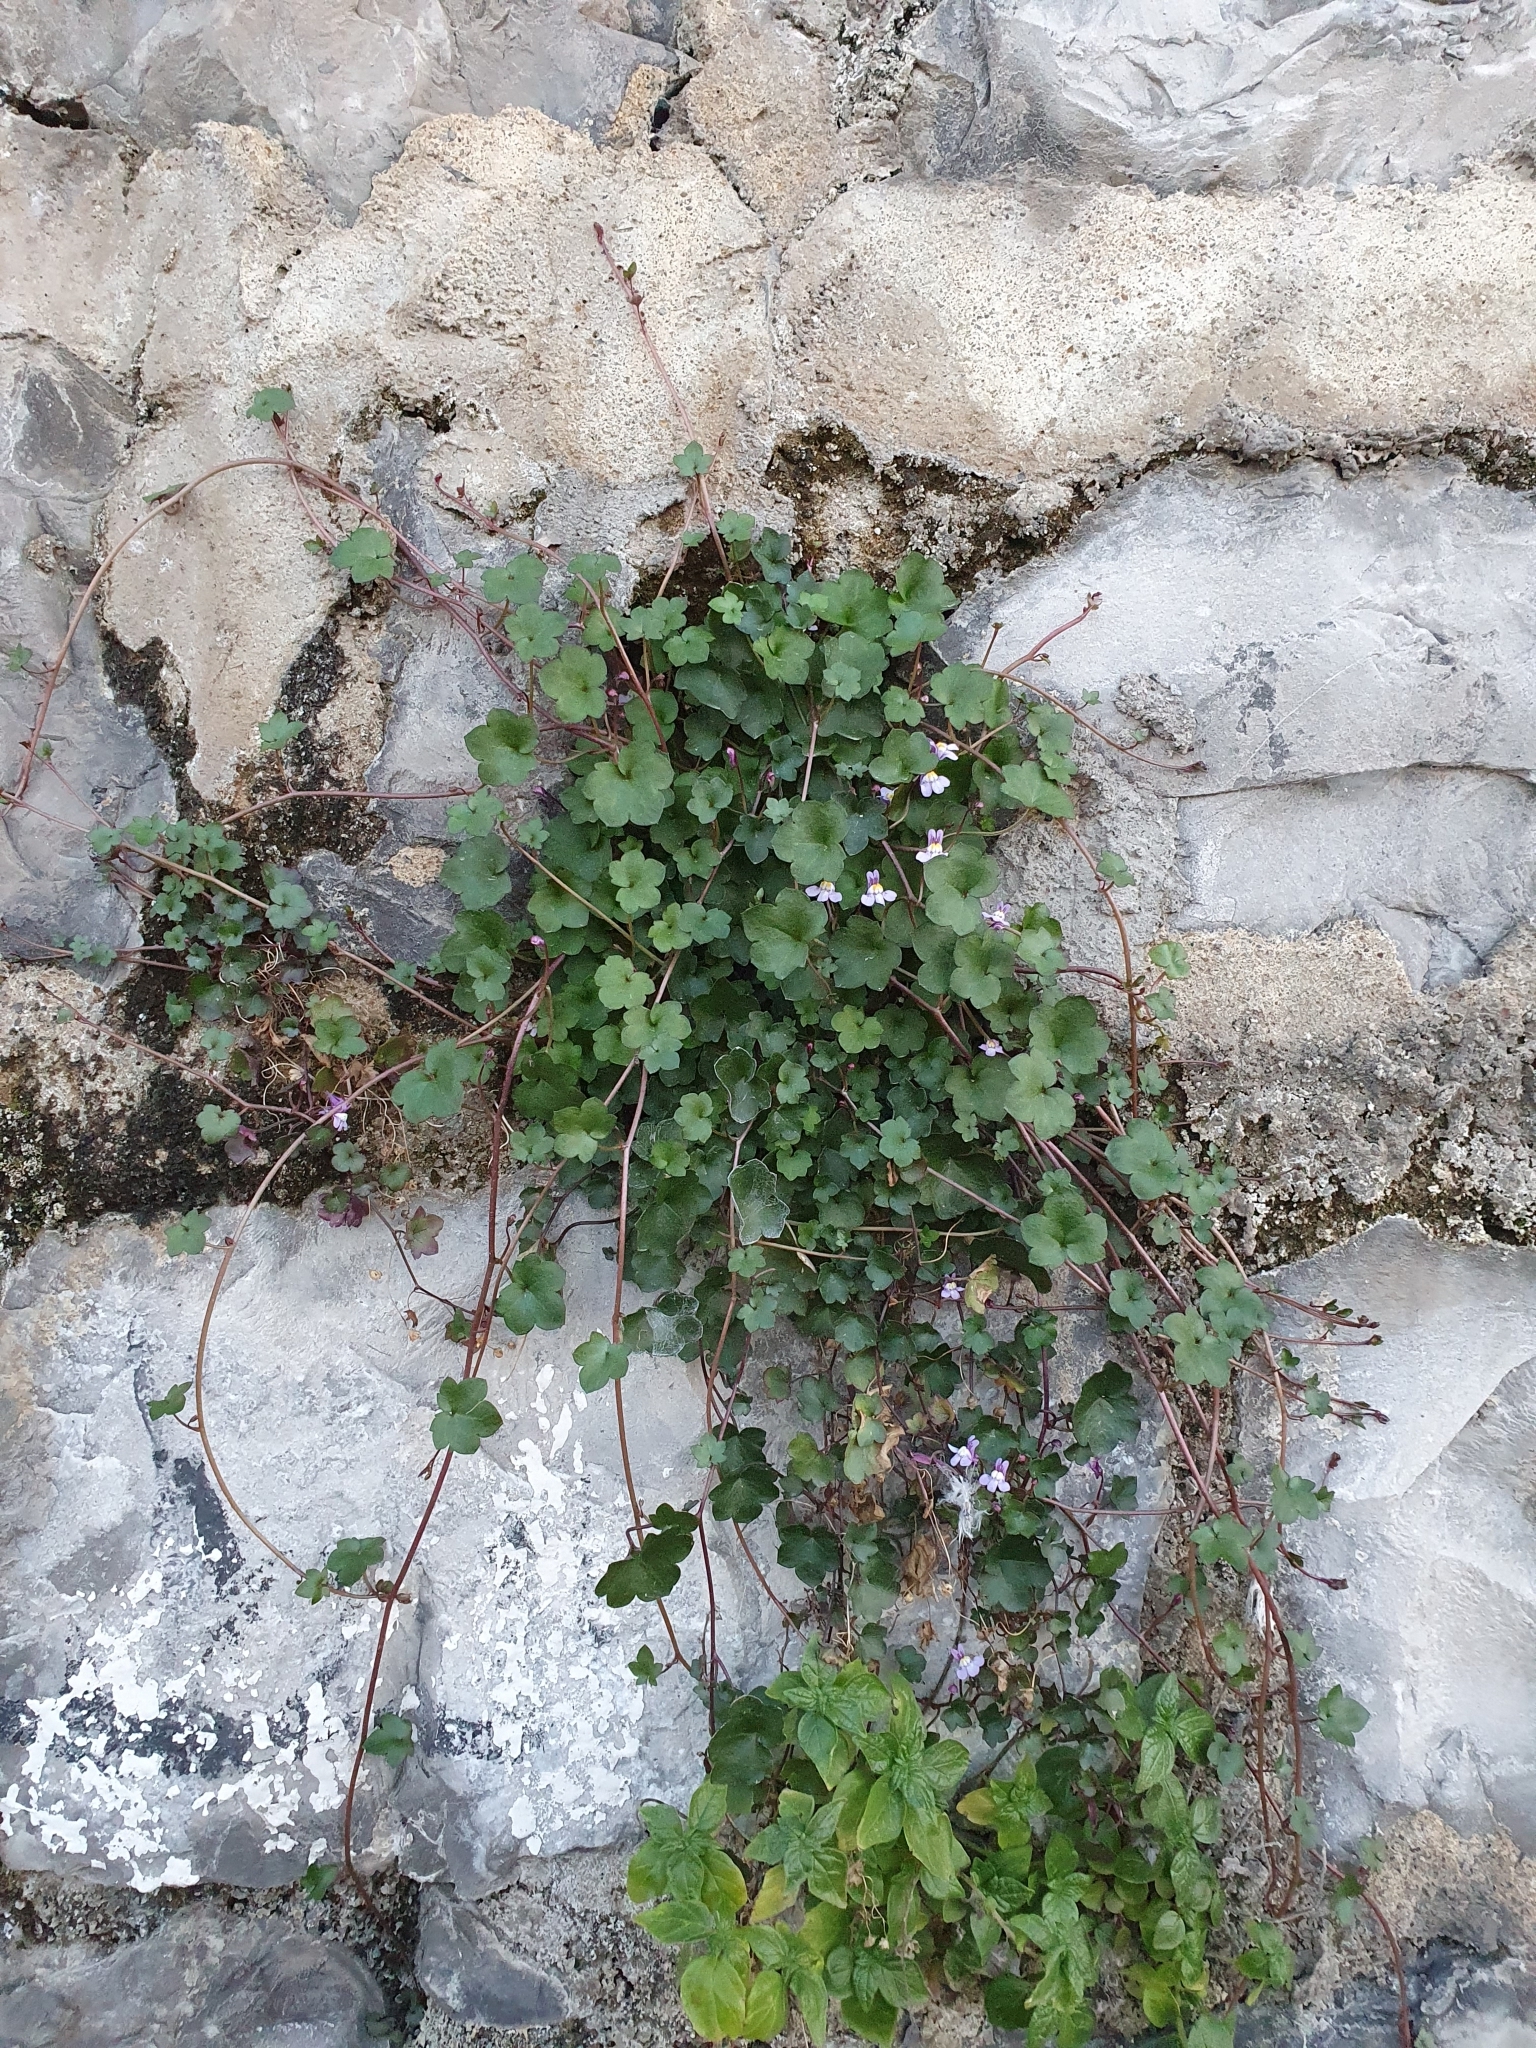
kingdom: Plantae
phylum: Tracheophyta
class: Magnoliopsida
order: Lamiales
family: Plantaginaceae
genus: Cymbalaria
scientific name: Cymbalaria muralis
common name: Ivy-leaved toadflax
